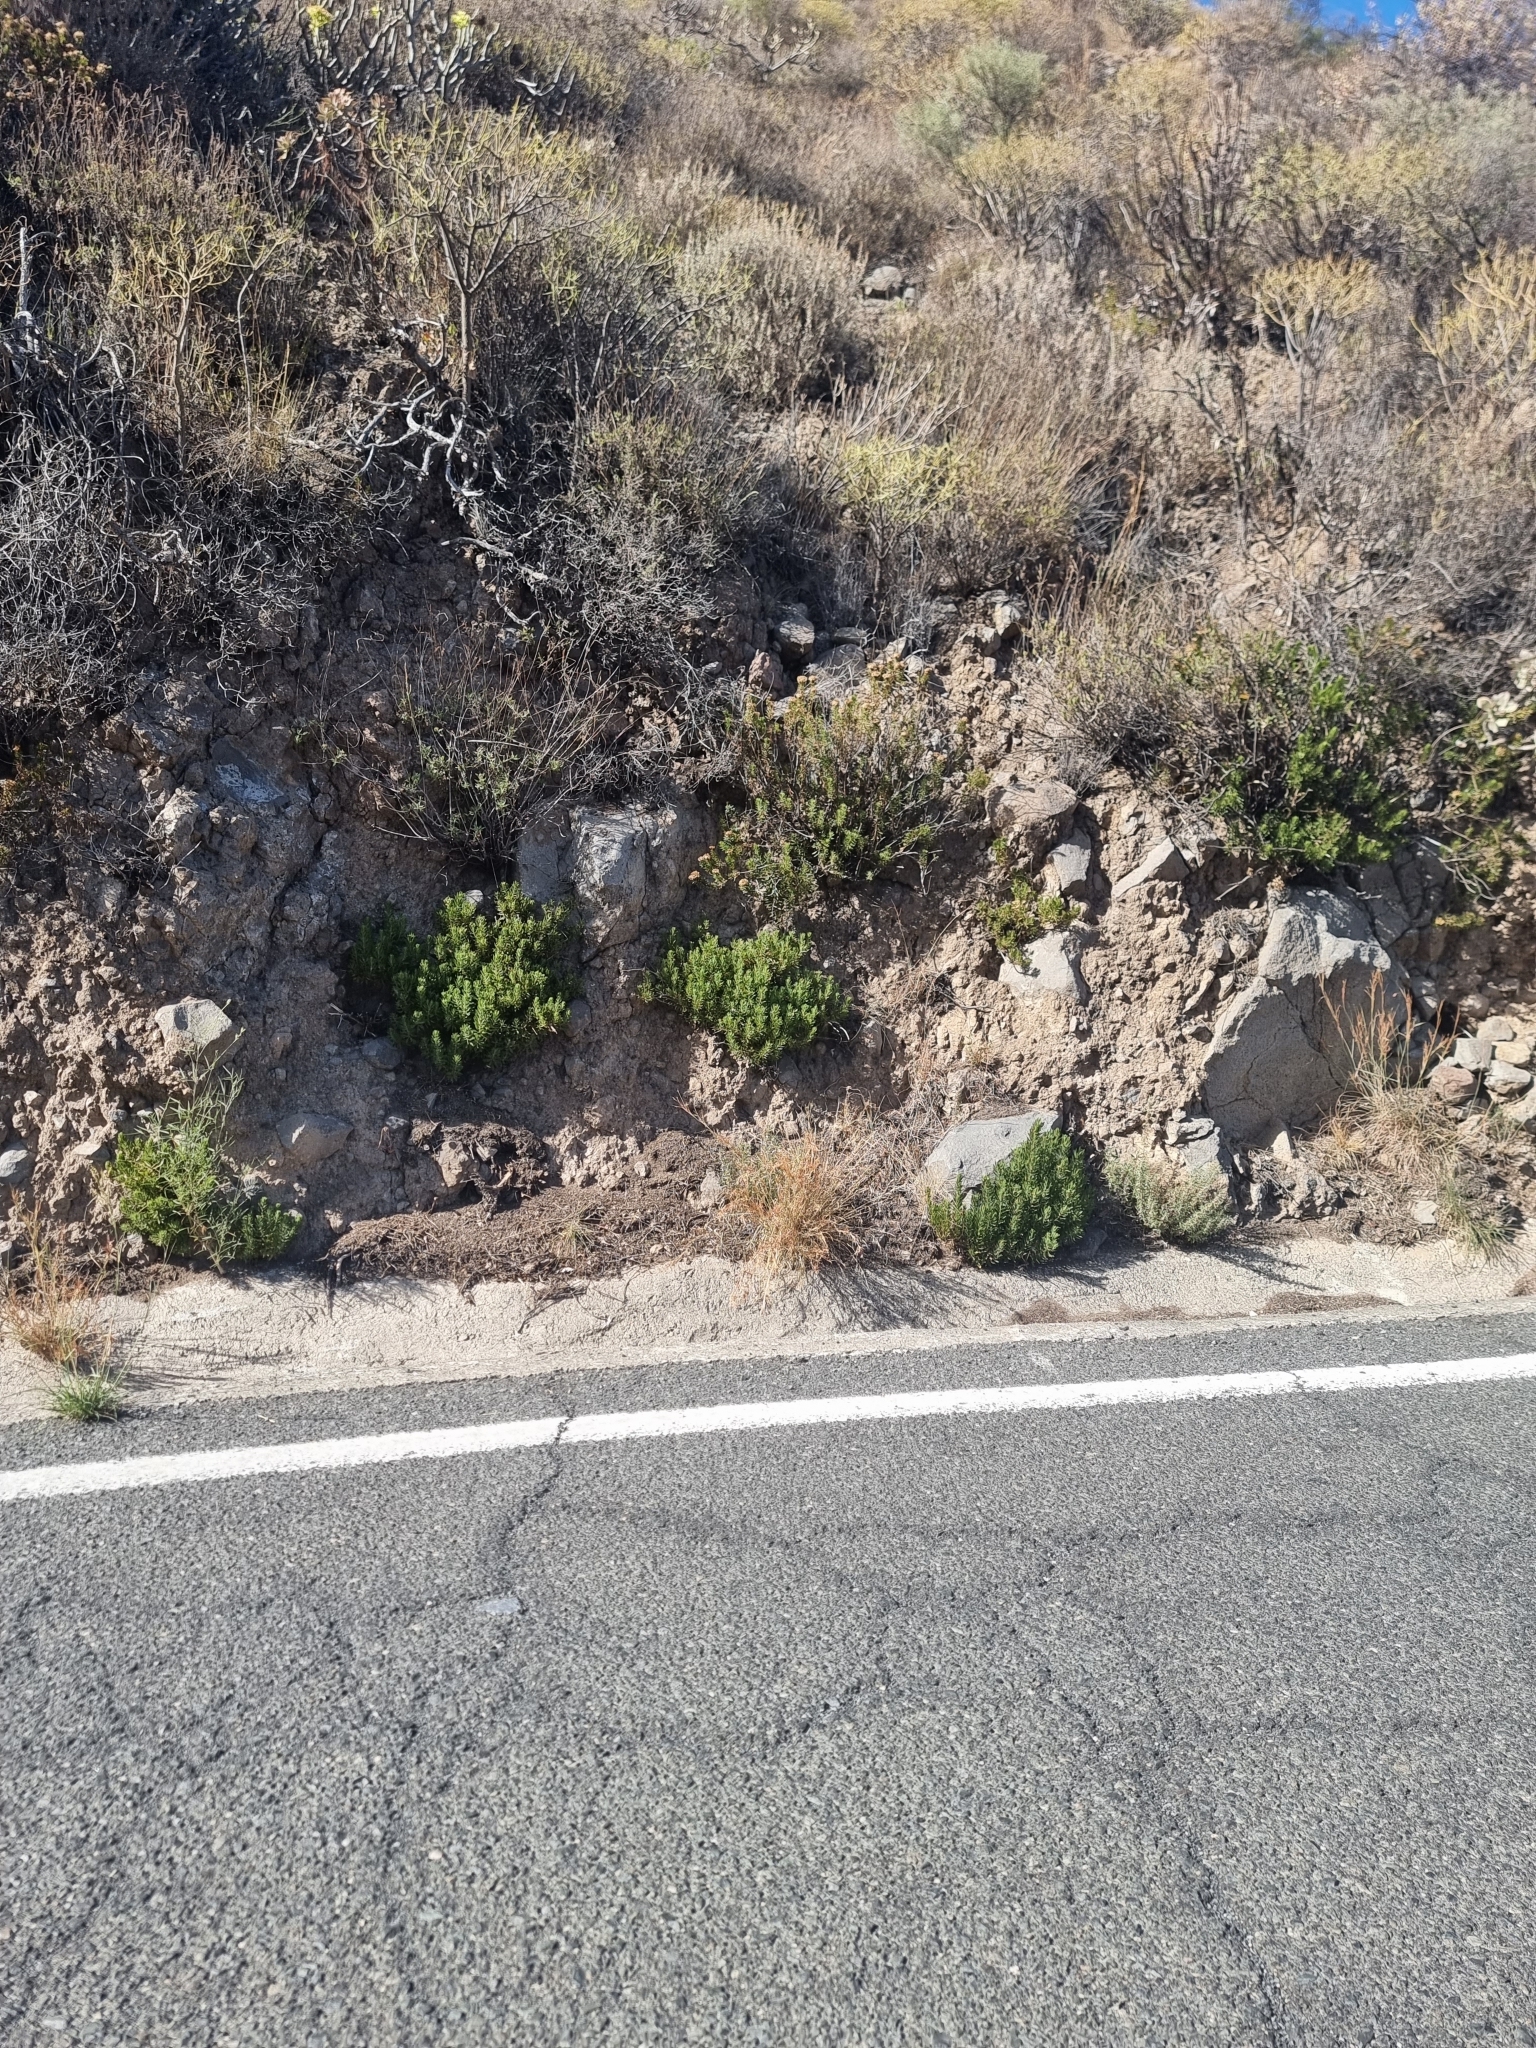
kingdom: Plantae
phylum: Tracheophyta
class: Magnoliopsida
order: Asterales
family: Asteraceae
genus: Allagopappus
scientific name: Allagopappus canariensis
